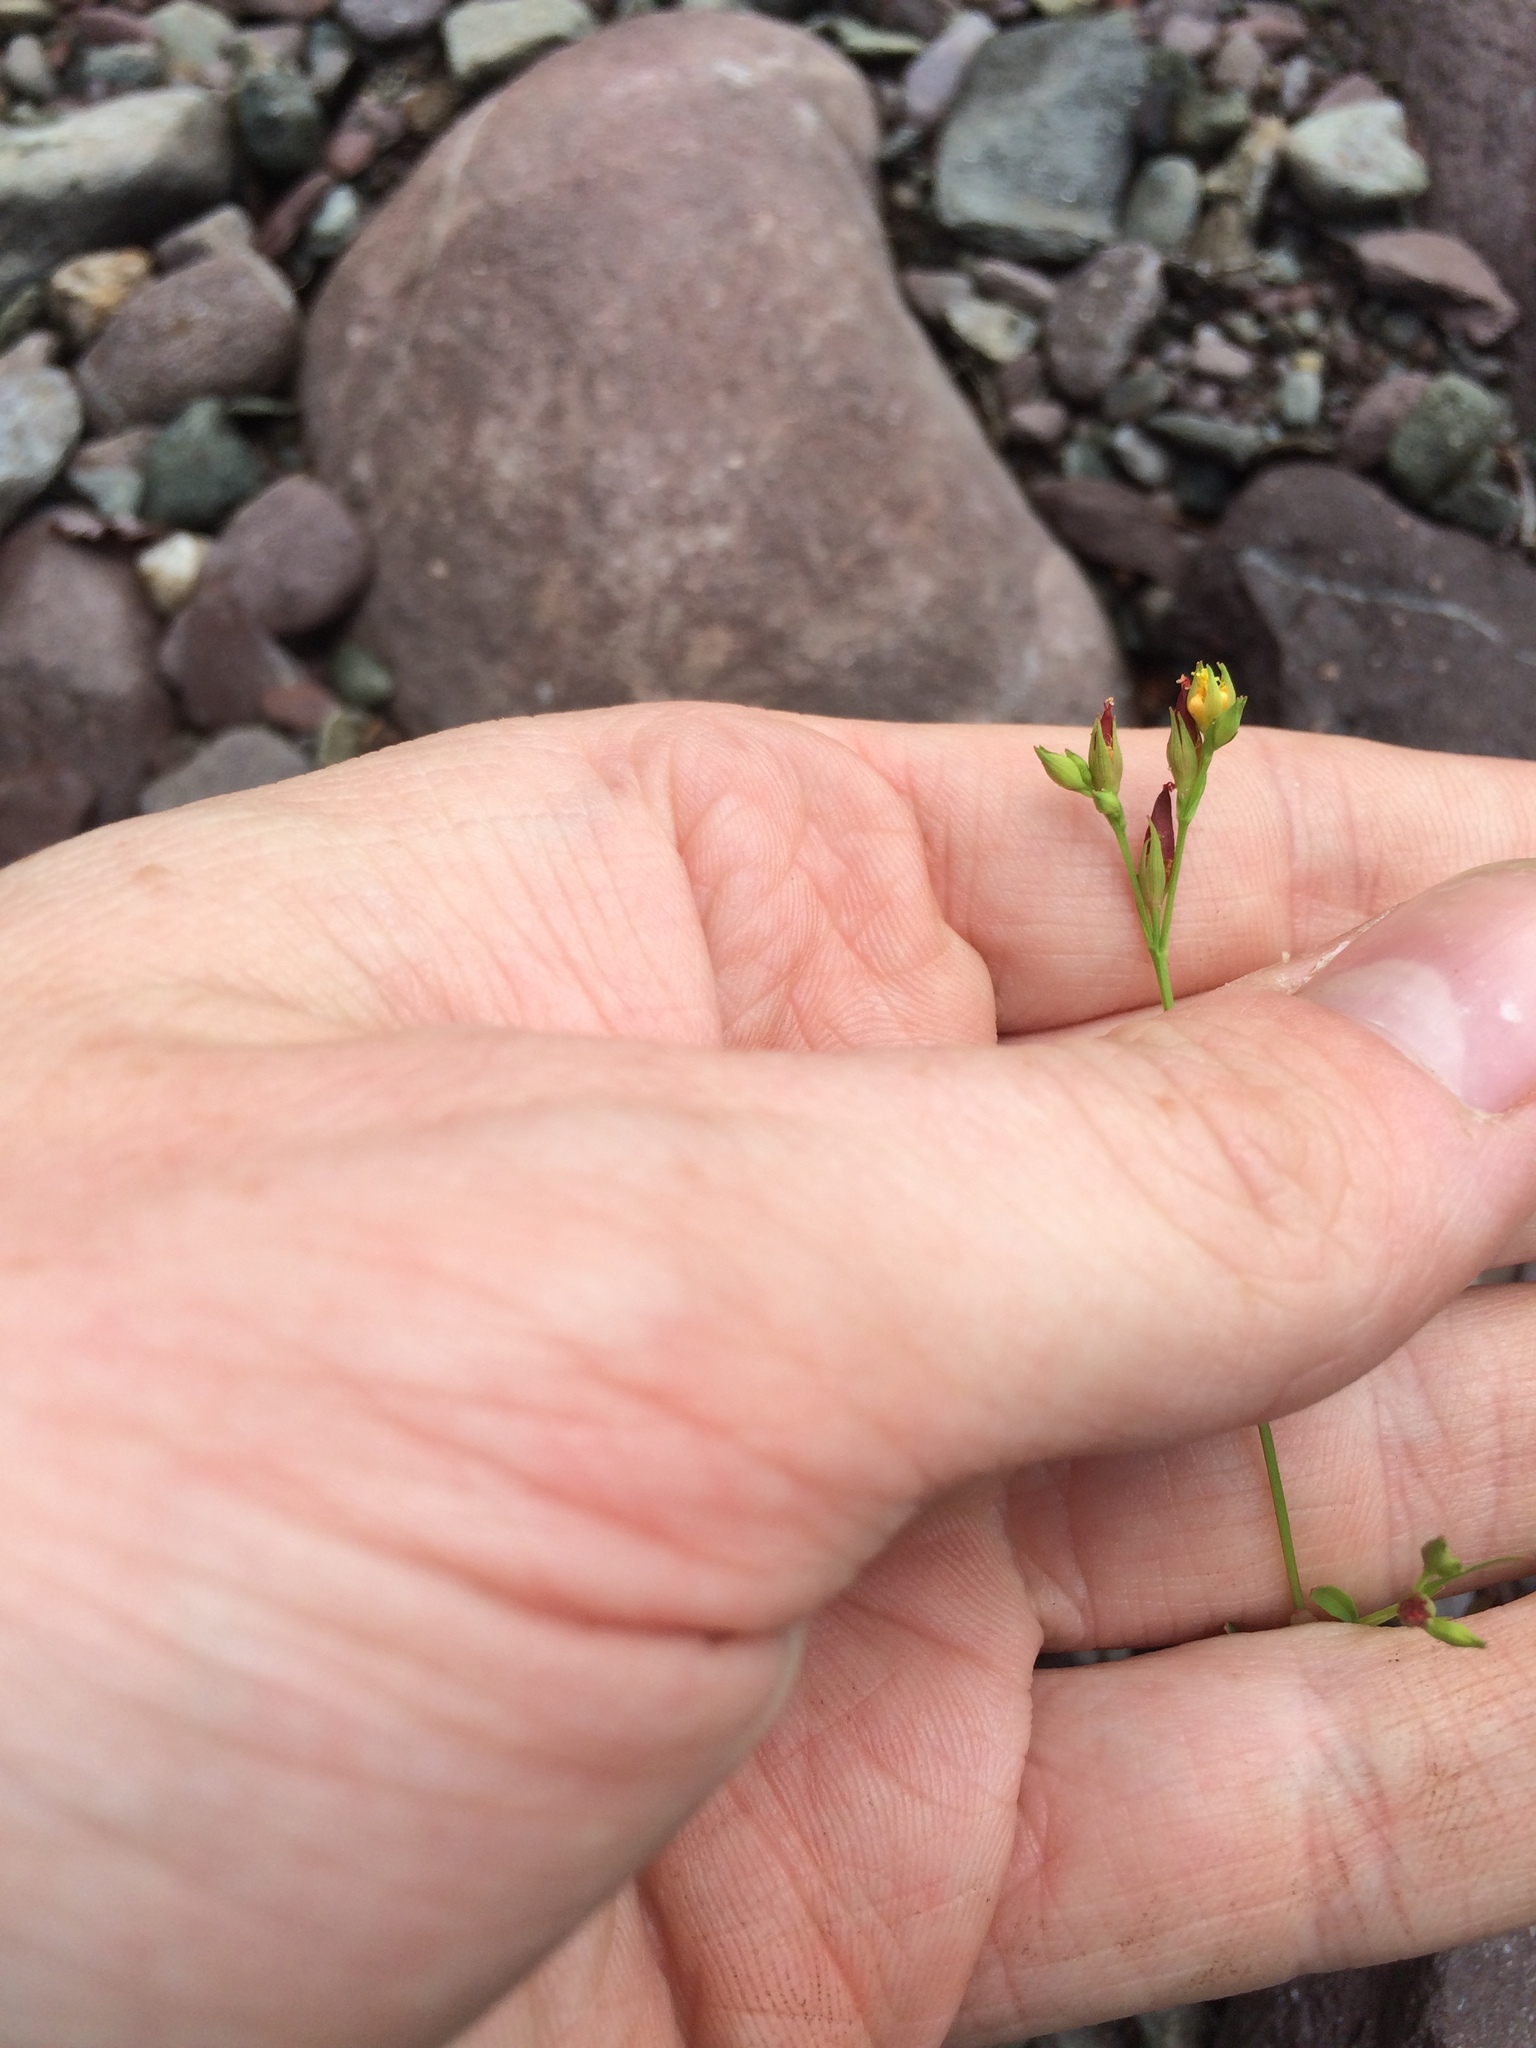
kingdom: Plantae
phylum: Tracheophyta
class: Magnoliopsida
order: Malpighiales
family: Hypericaceae
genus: Hypericum
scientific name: Hypericum canadense
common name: Irish st. john's-wort
